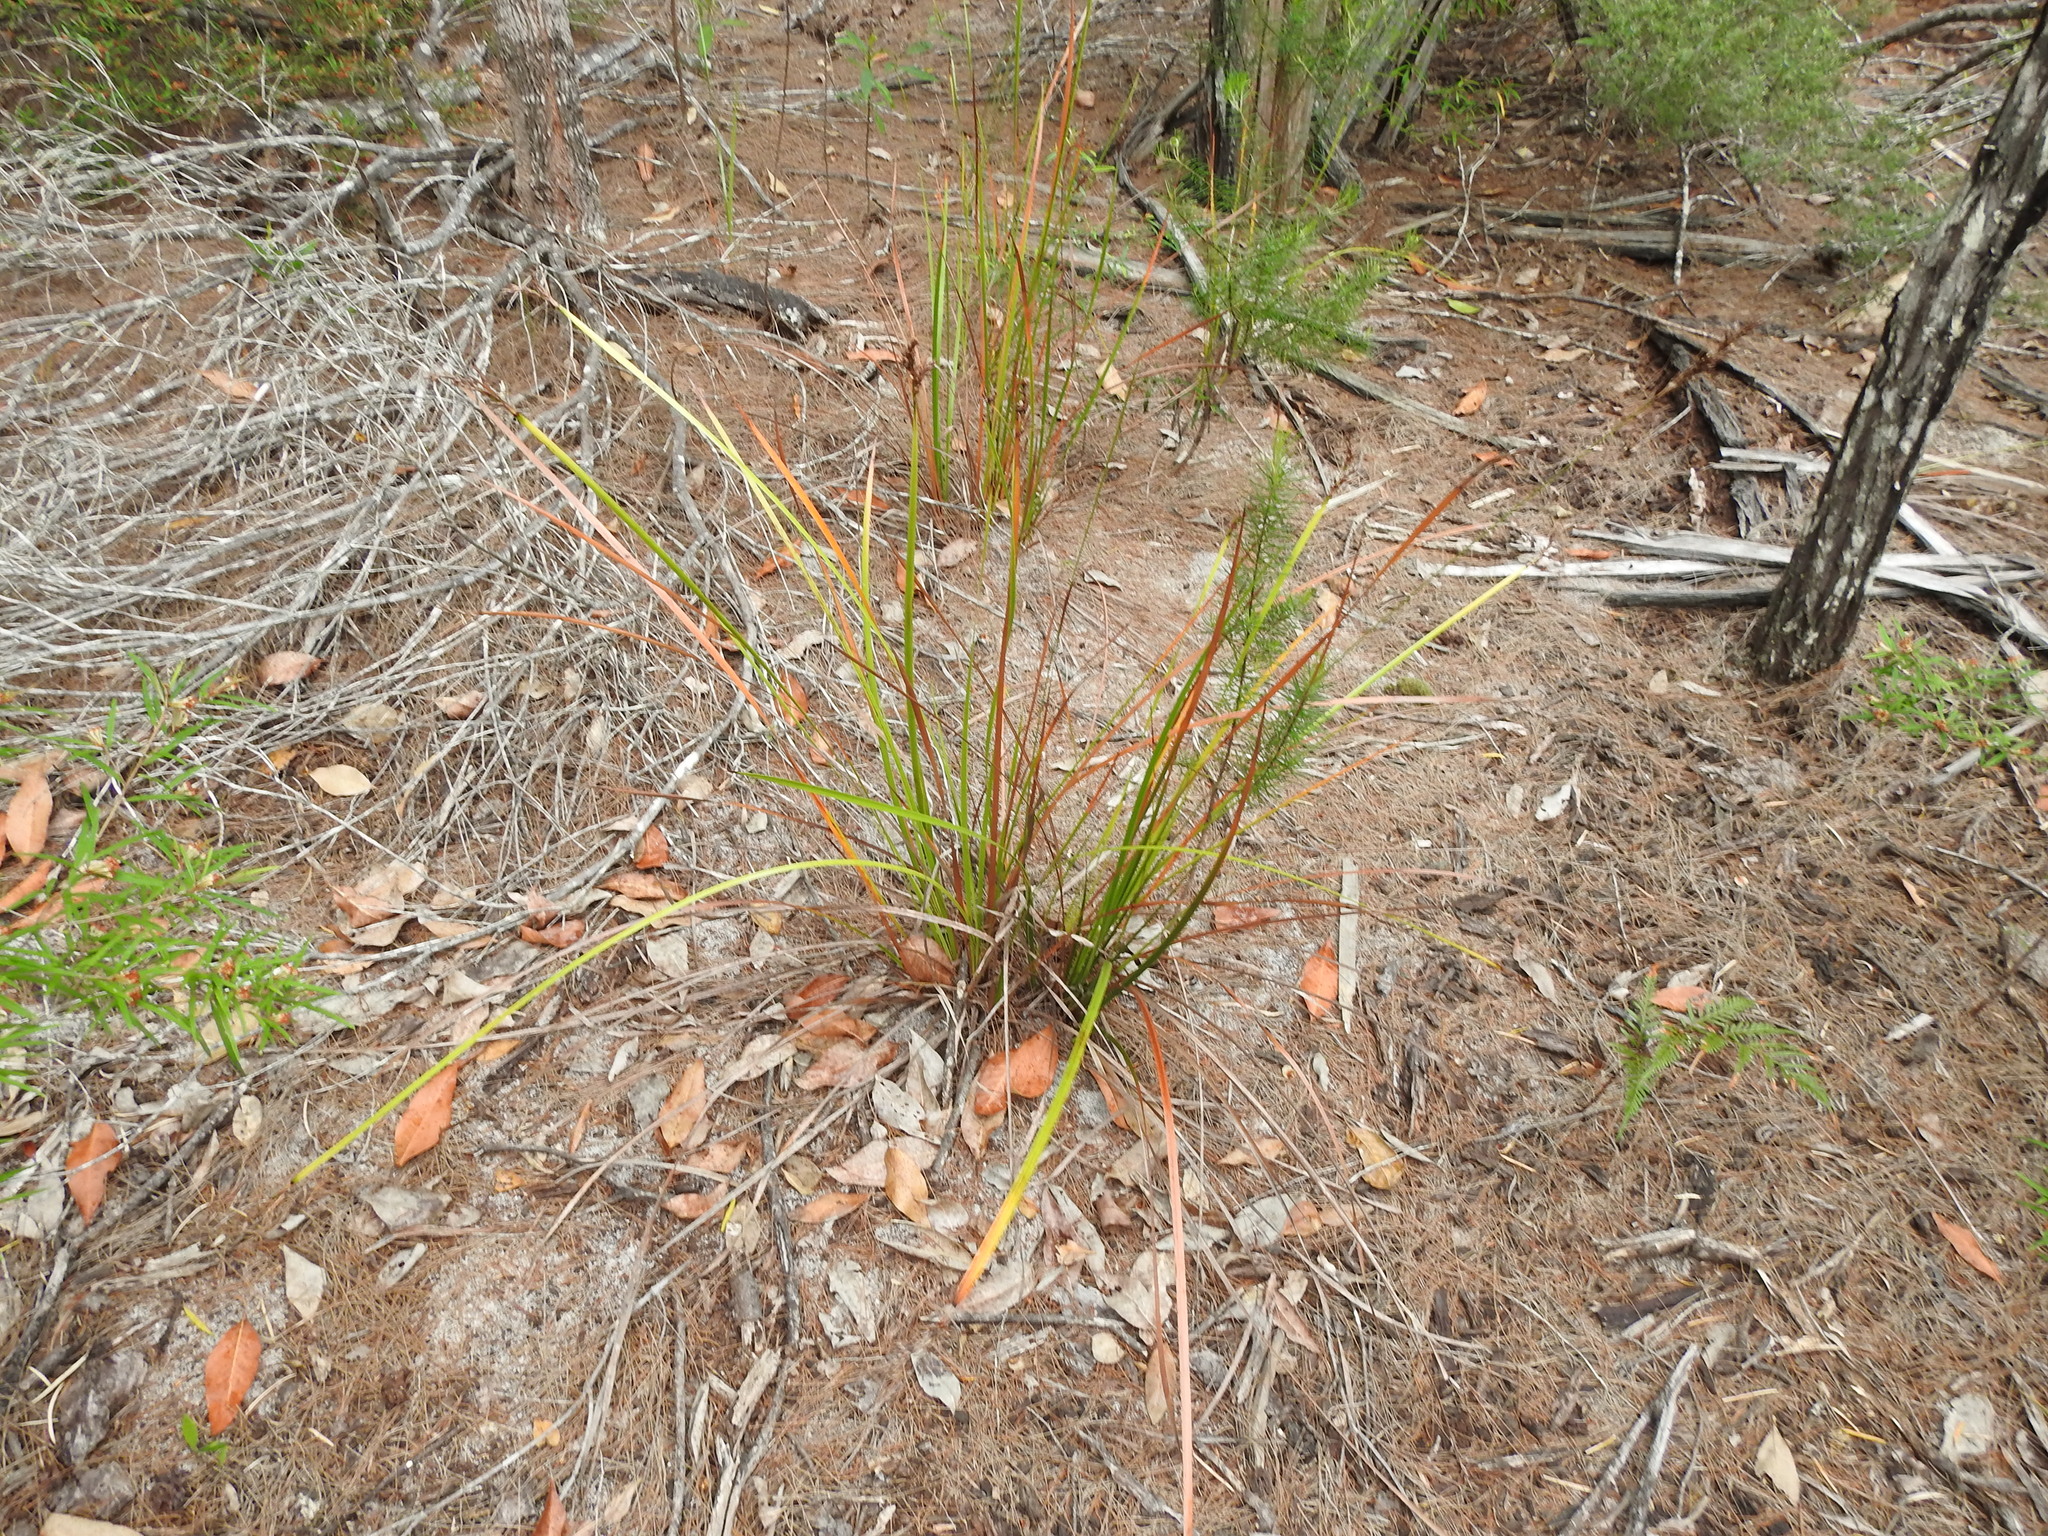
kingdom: Plantae
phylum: Tracheophyta
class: Liliopsida
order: Poales
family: Cyperaceae
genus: Lepidosperma
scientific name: Lepidosperma laterale
